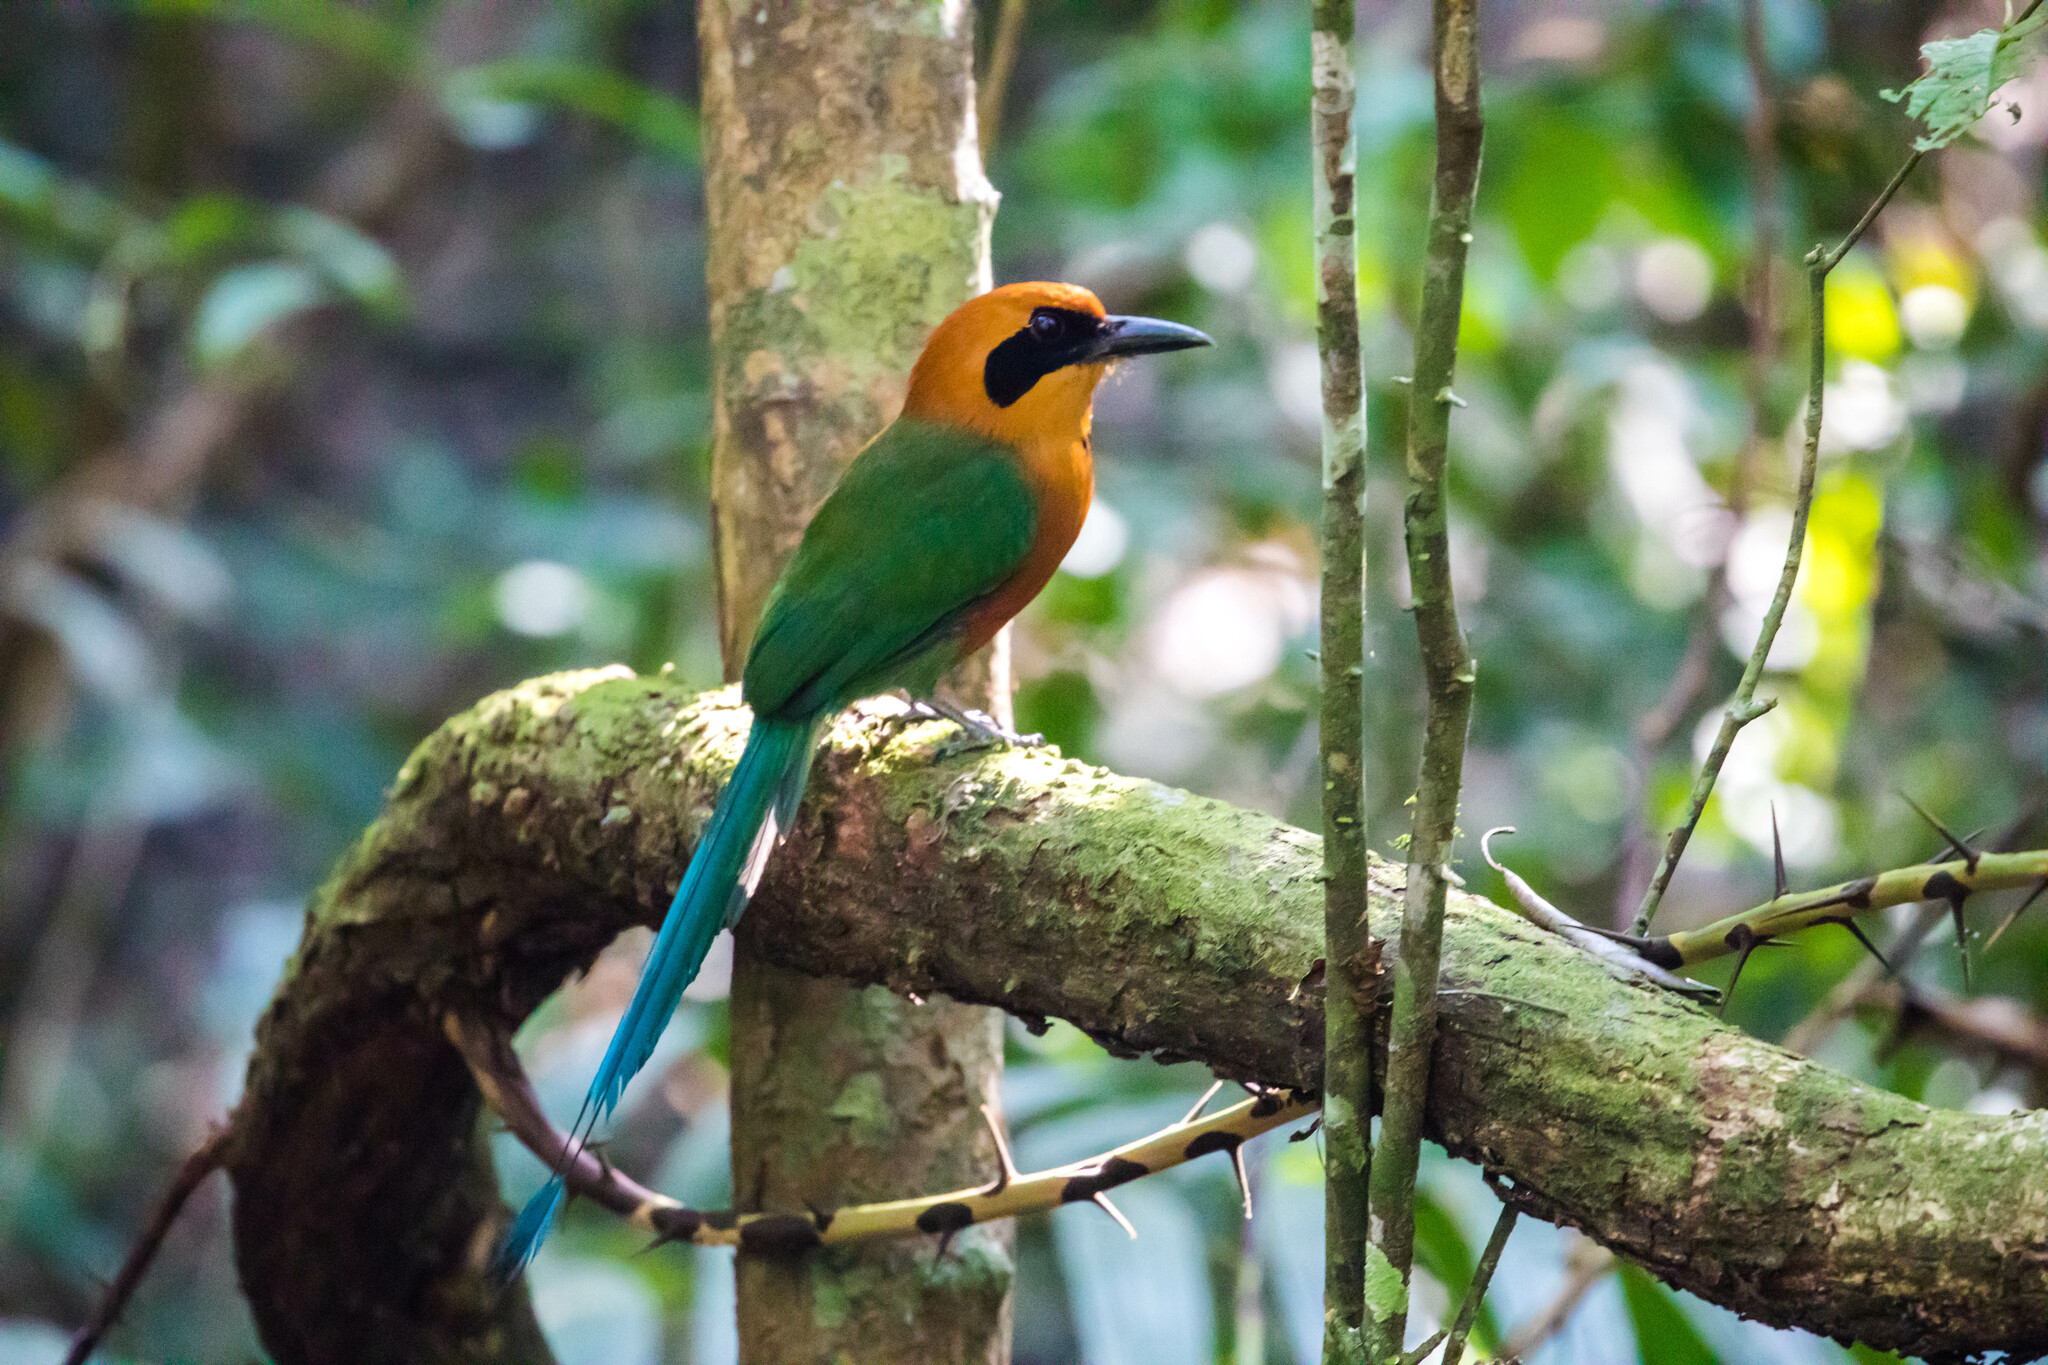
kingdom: Animalia
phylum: Chordata
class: Aves
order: Coraciiformes
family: Momotidae
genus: Baryphthengus
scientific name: Baryphthengus martii
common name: Rufous motmot
